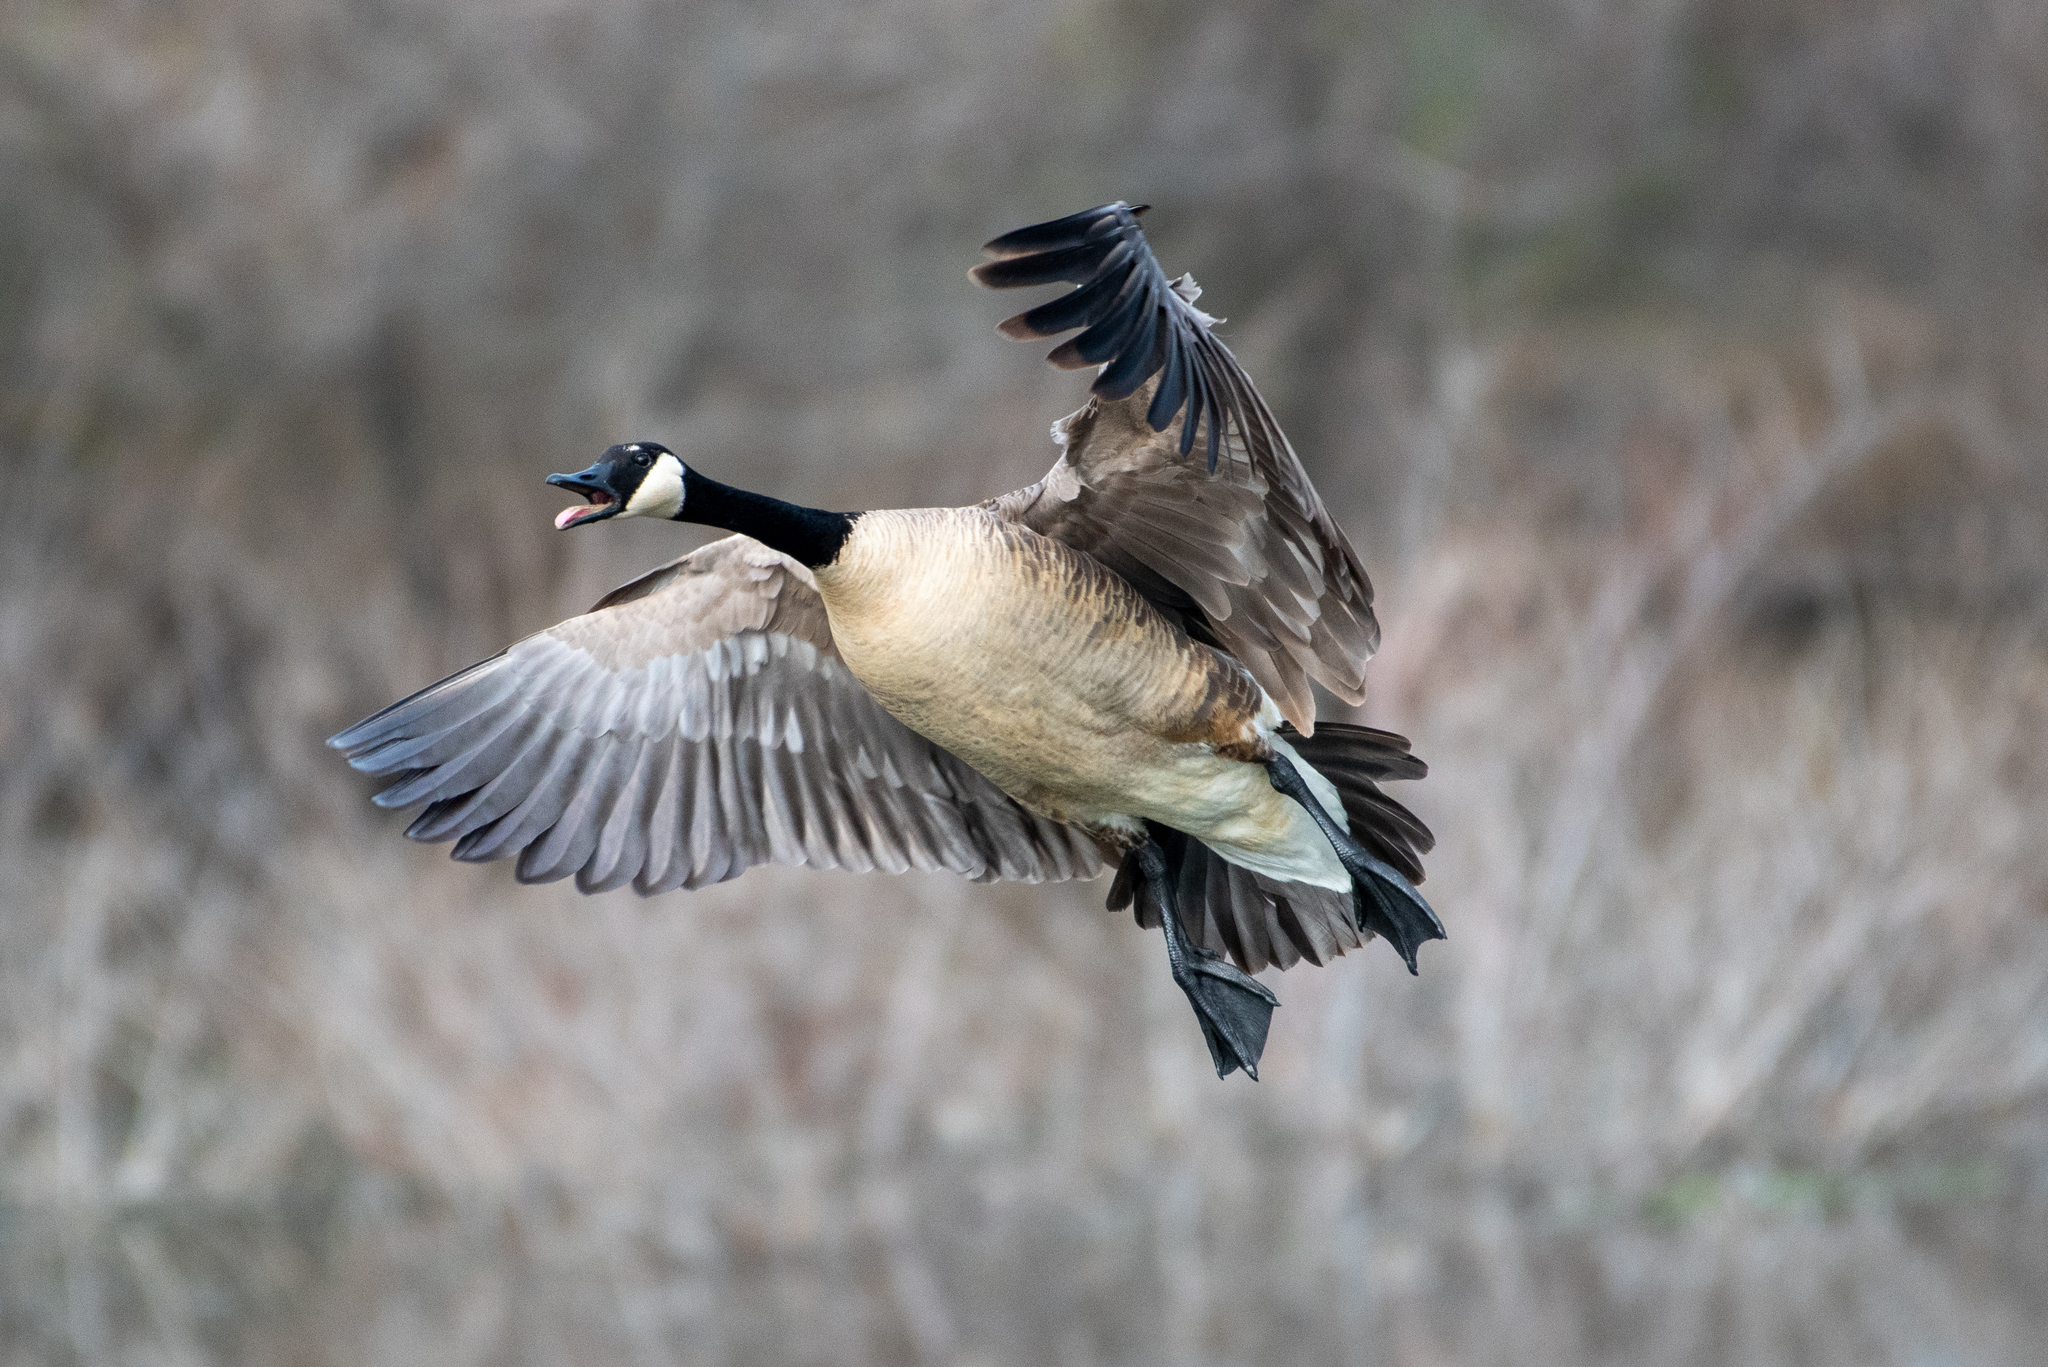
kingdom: Animalia
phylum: Chordata
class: Aves
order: Anseriformes
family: Anatidae
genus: Branta
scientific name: Branta canadensis
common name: Canada goose
